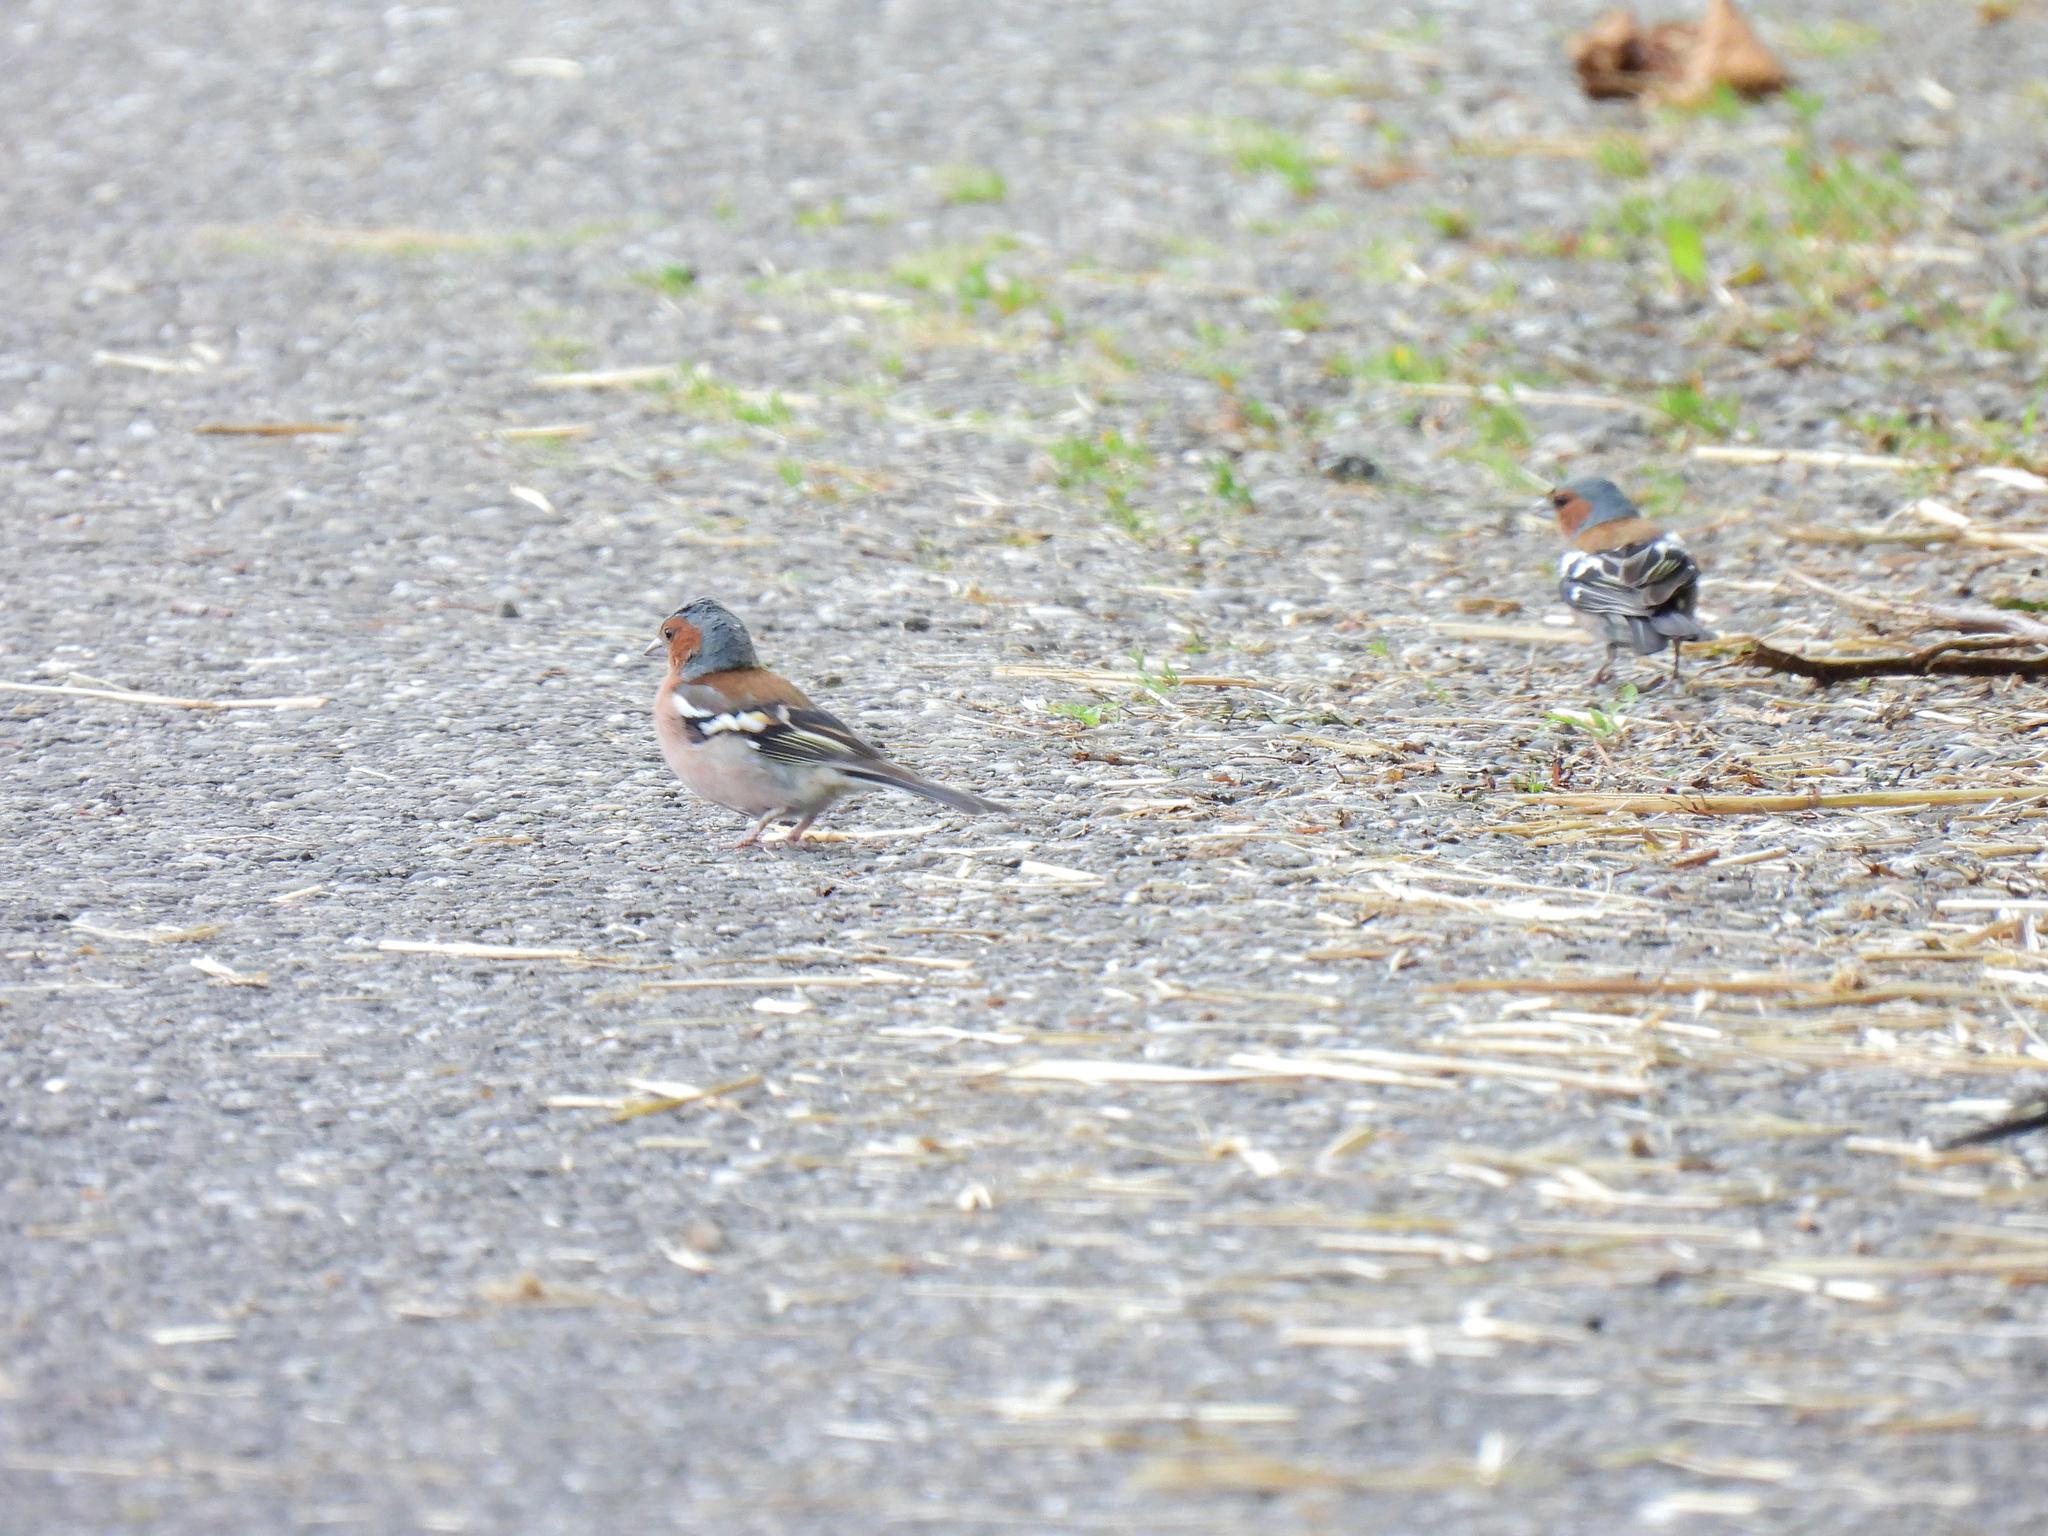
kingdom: Animalia
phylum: Chordata
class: Aves
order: Passeriformes
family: Fringillidae
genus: Fringilla
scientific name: Fringilla coelebs
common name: Common chaffinch
